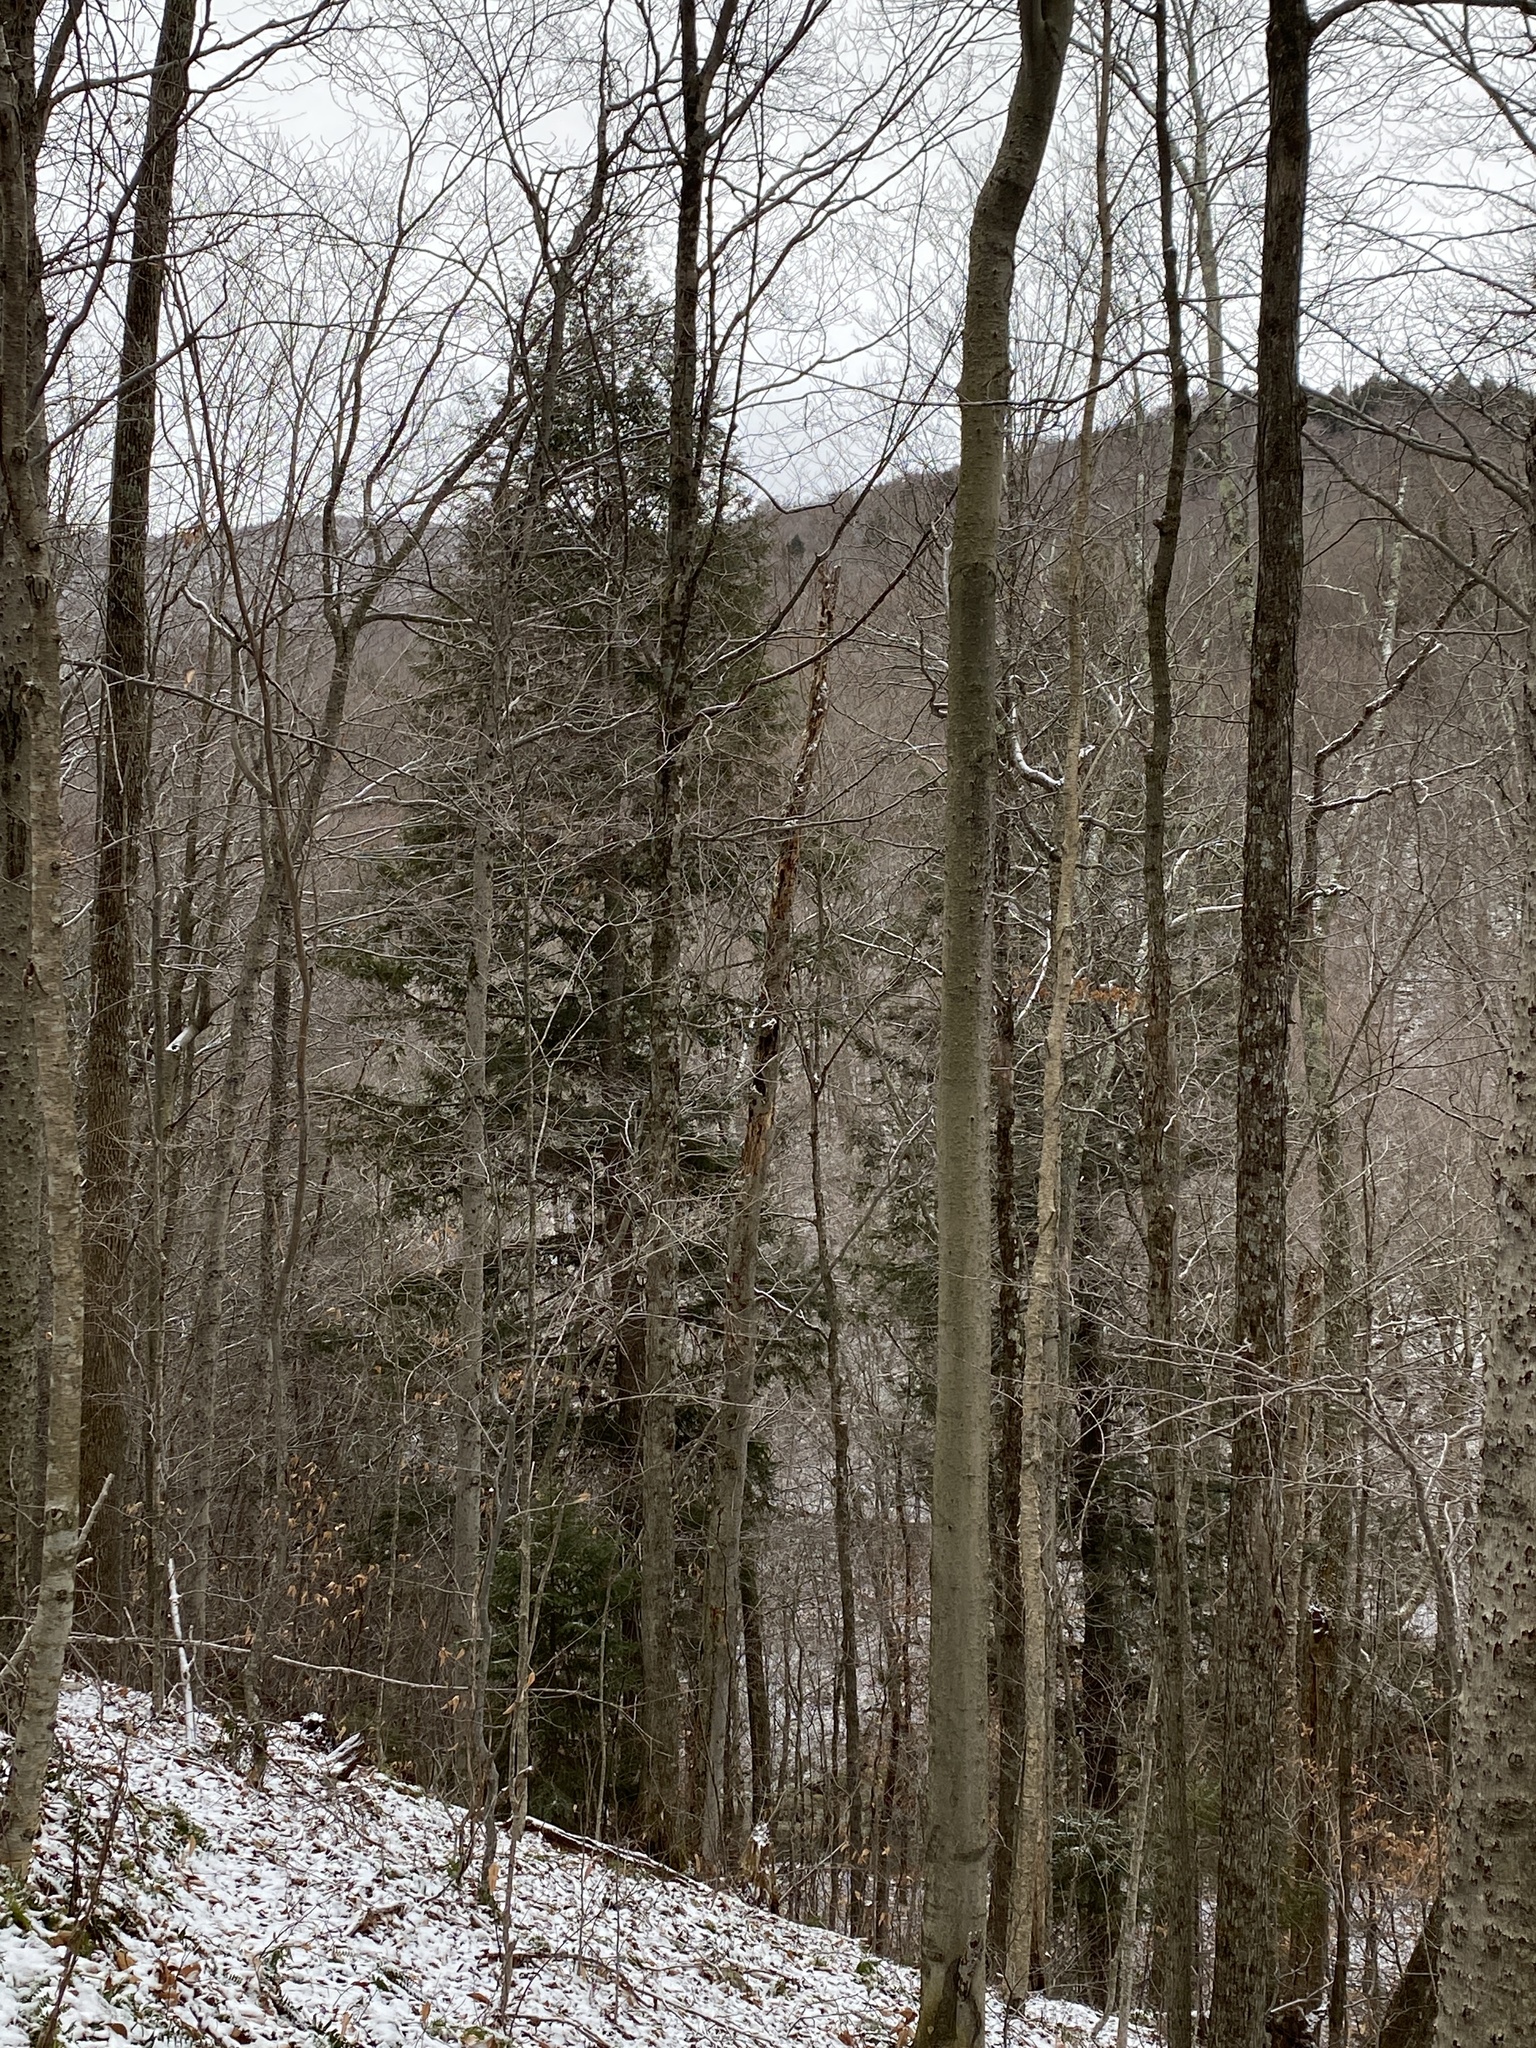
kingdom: Plantae
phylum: Tracheophyta
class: Magnoliopsida
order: Fagales
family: Fagaceae
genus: Fagus
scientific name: Fagus grandifolia
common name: American beech
